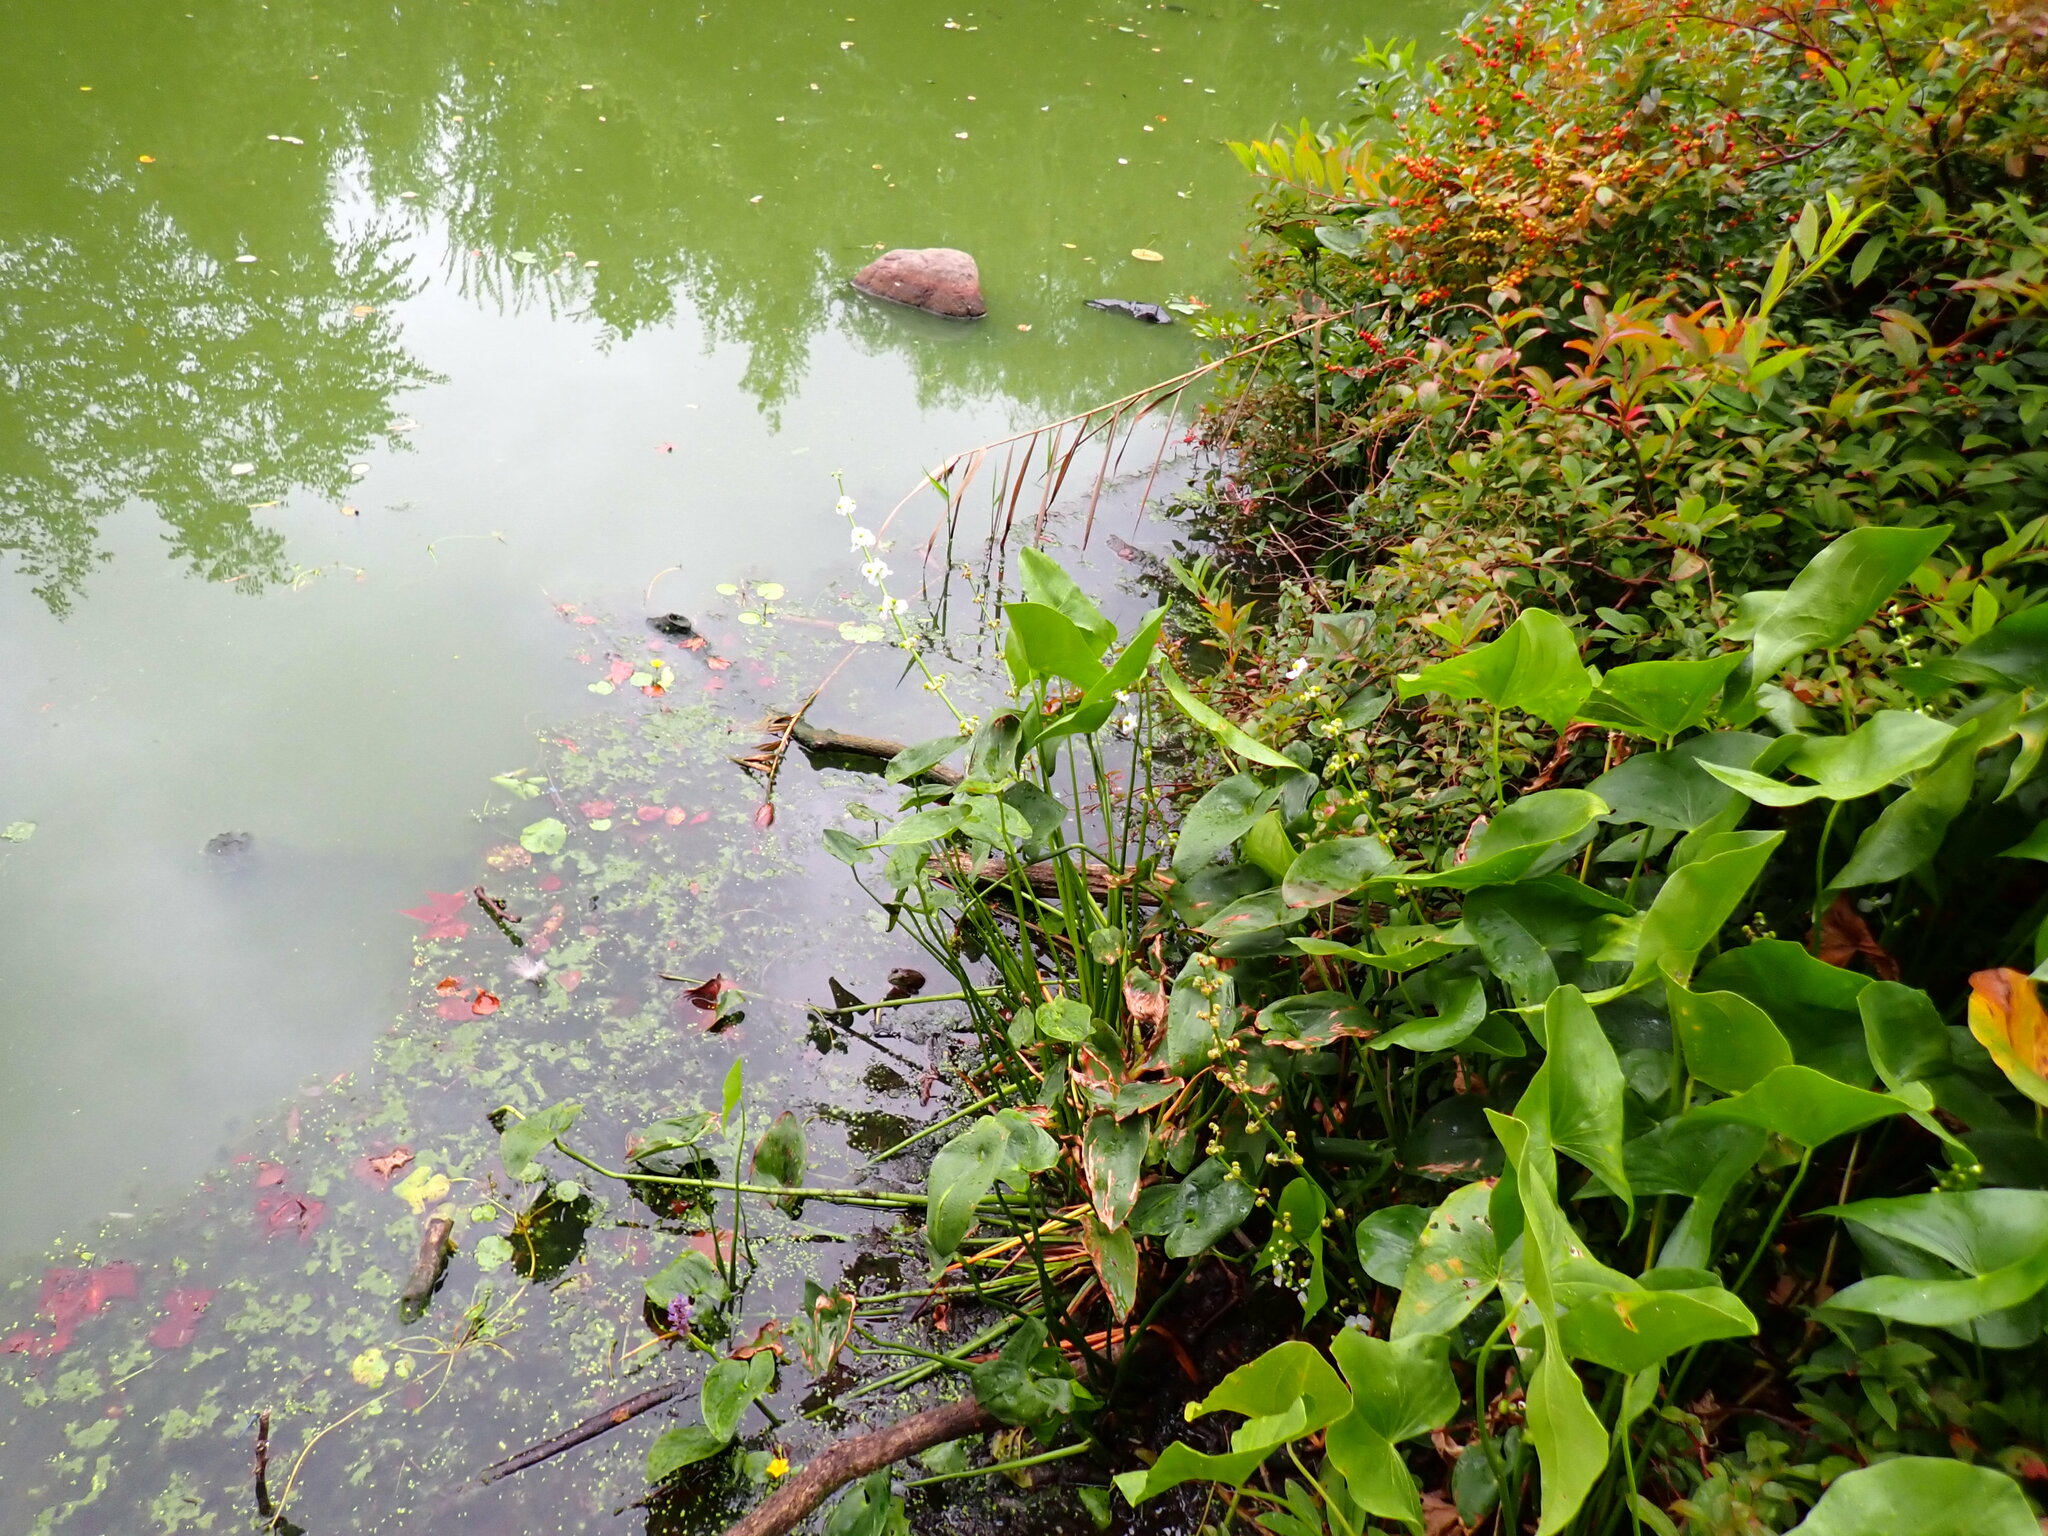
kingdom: Plantae
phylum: Tracheophyta
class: Liliopsida
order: Alismatales
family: Alismataceae
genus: Sagittaria
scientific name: Sagittaria latifolia
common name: Duck-potato
